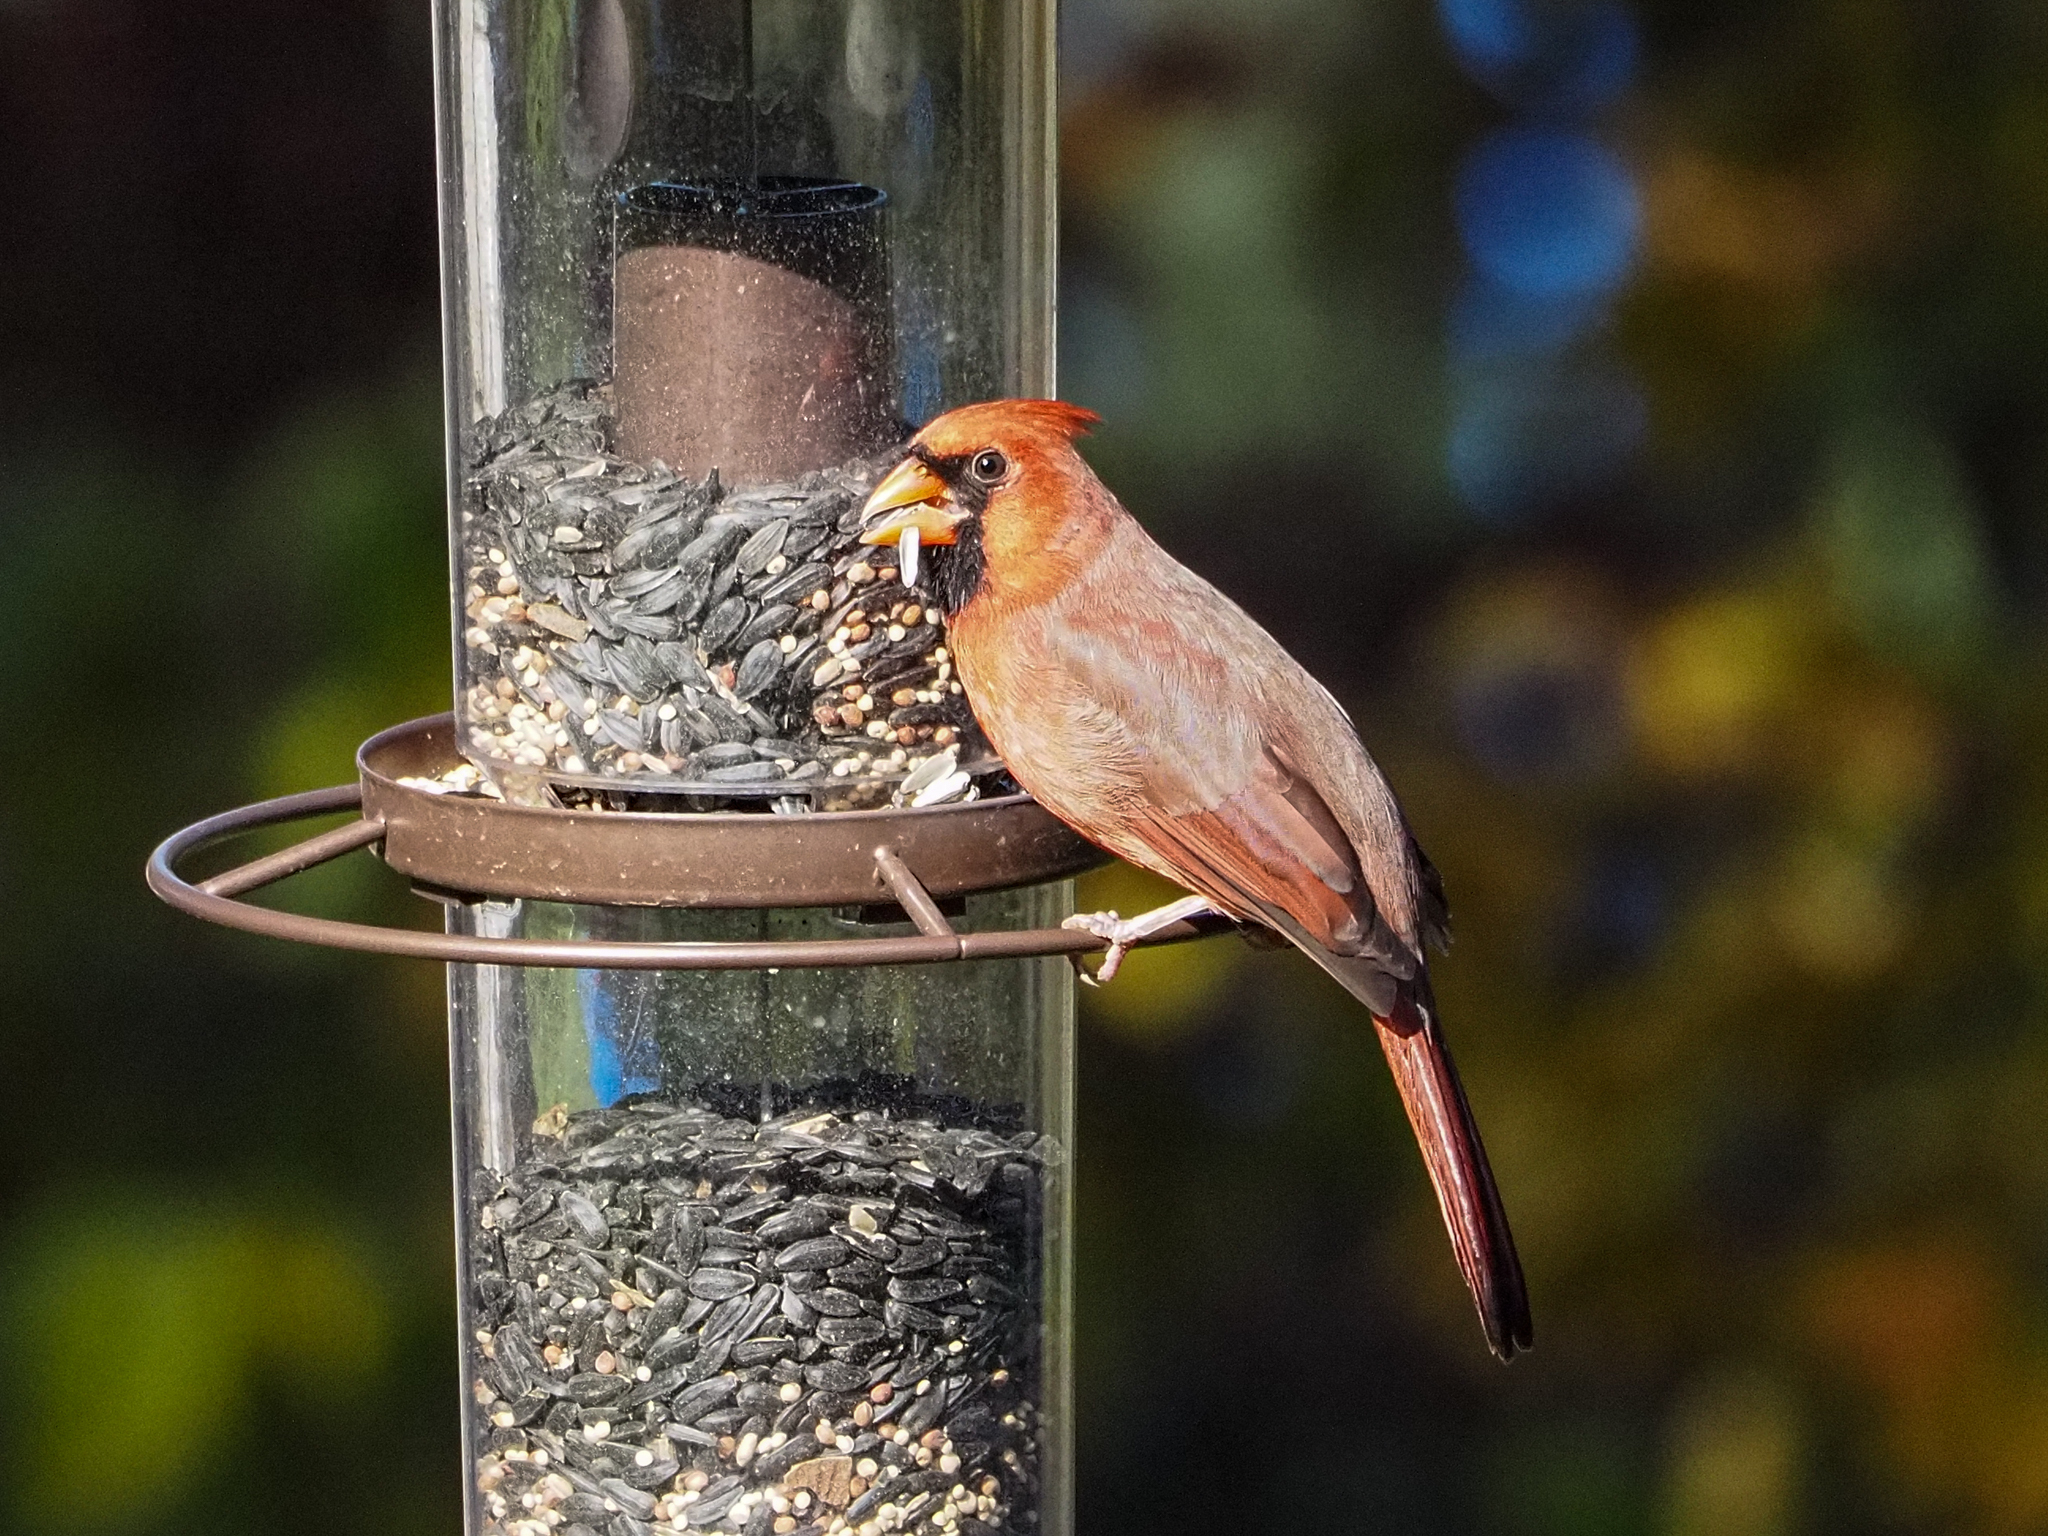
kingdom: Animalia
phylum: Chordata
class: Aves
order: Passeriformes
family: Cardinalidae
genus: Cardinalis
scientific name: Cardinalis cardinalis
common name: Northern cardinal
